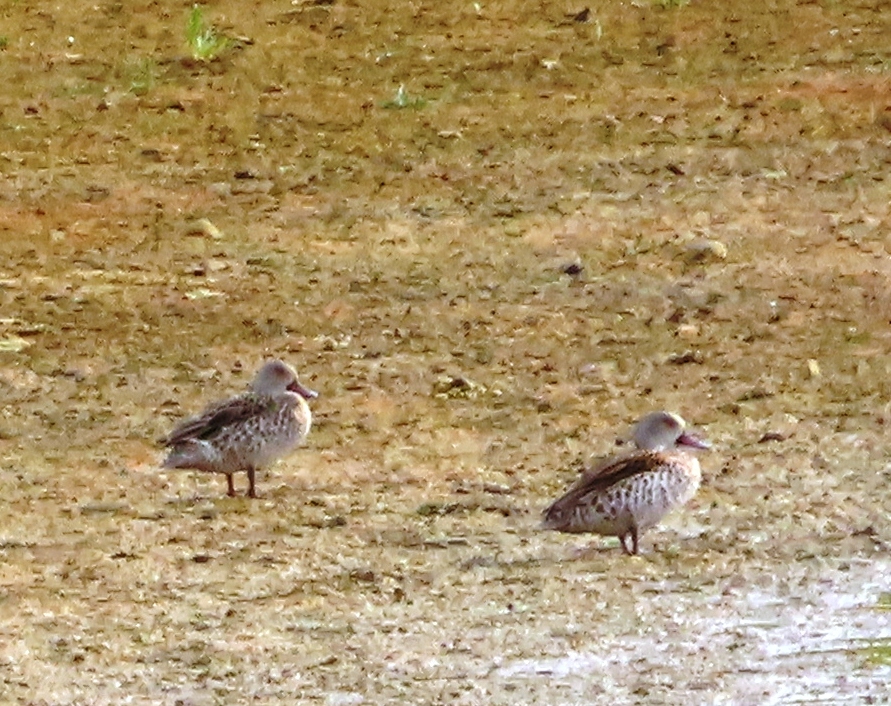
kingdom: Animalia
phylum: Chordata
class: Aves
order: Anseriformes
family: Anatidae
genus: Anas
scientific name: Anas capensis
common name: Cape teal
